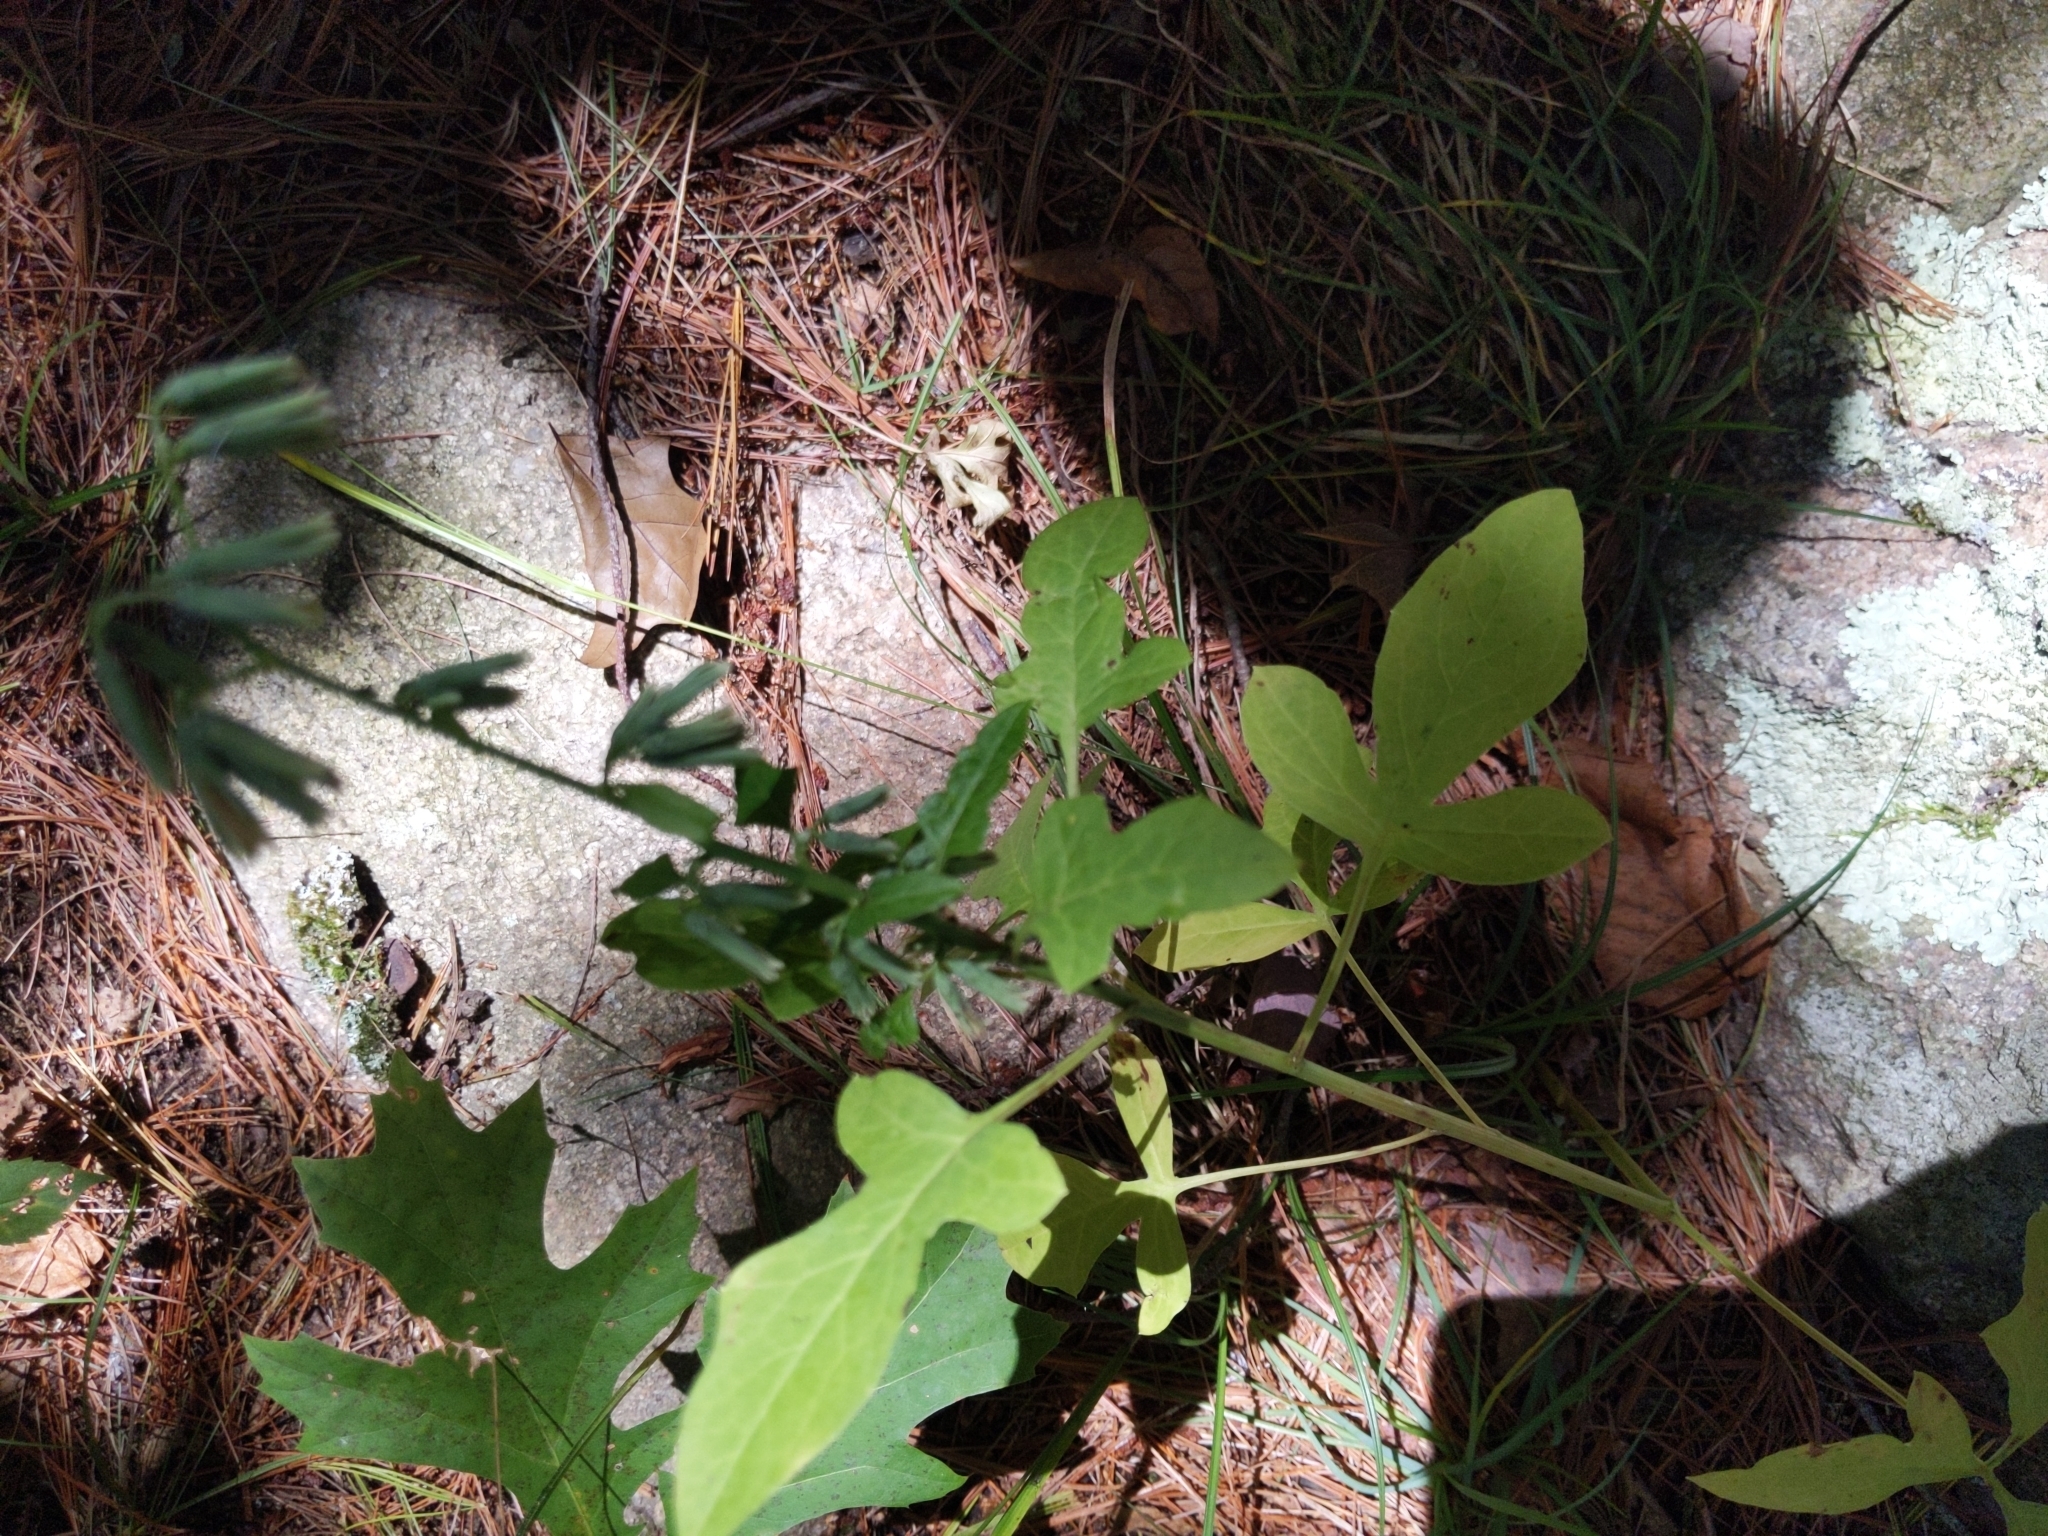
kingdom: Plantae
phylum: Tracheophyta
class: Magnoliopsida
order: Asterales
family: Asteraceae
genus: Nabalus
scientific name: Nabalus serpentarius
